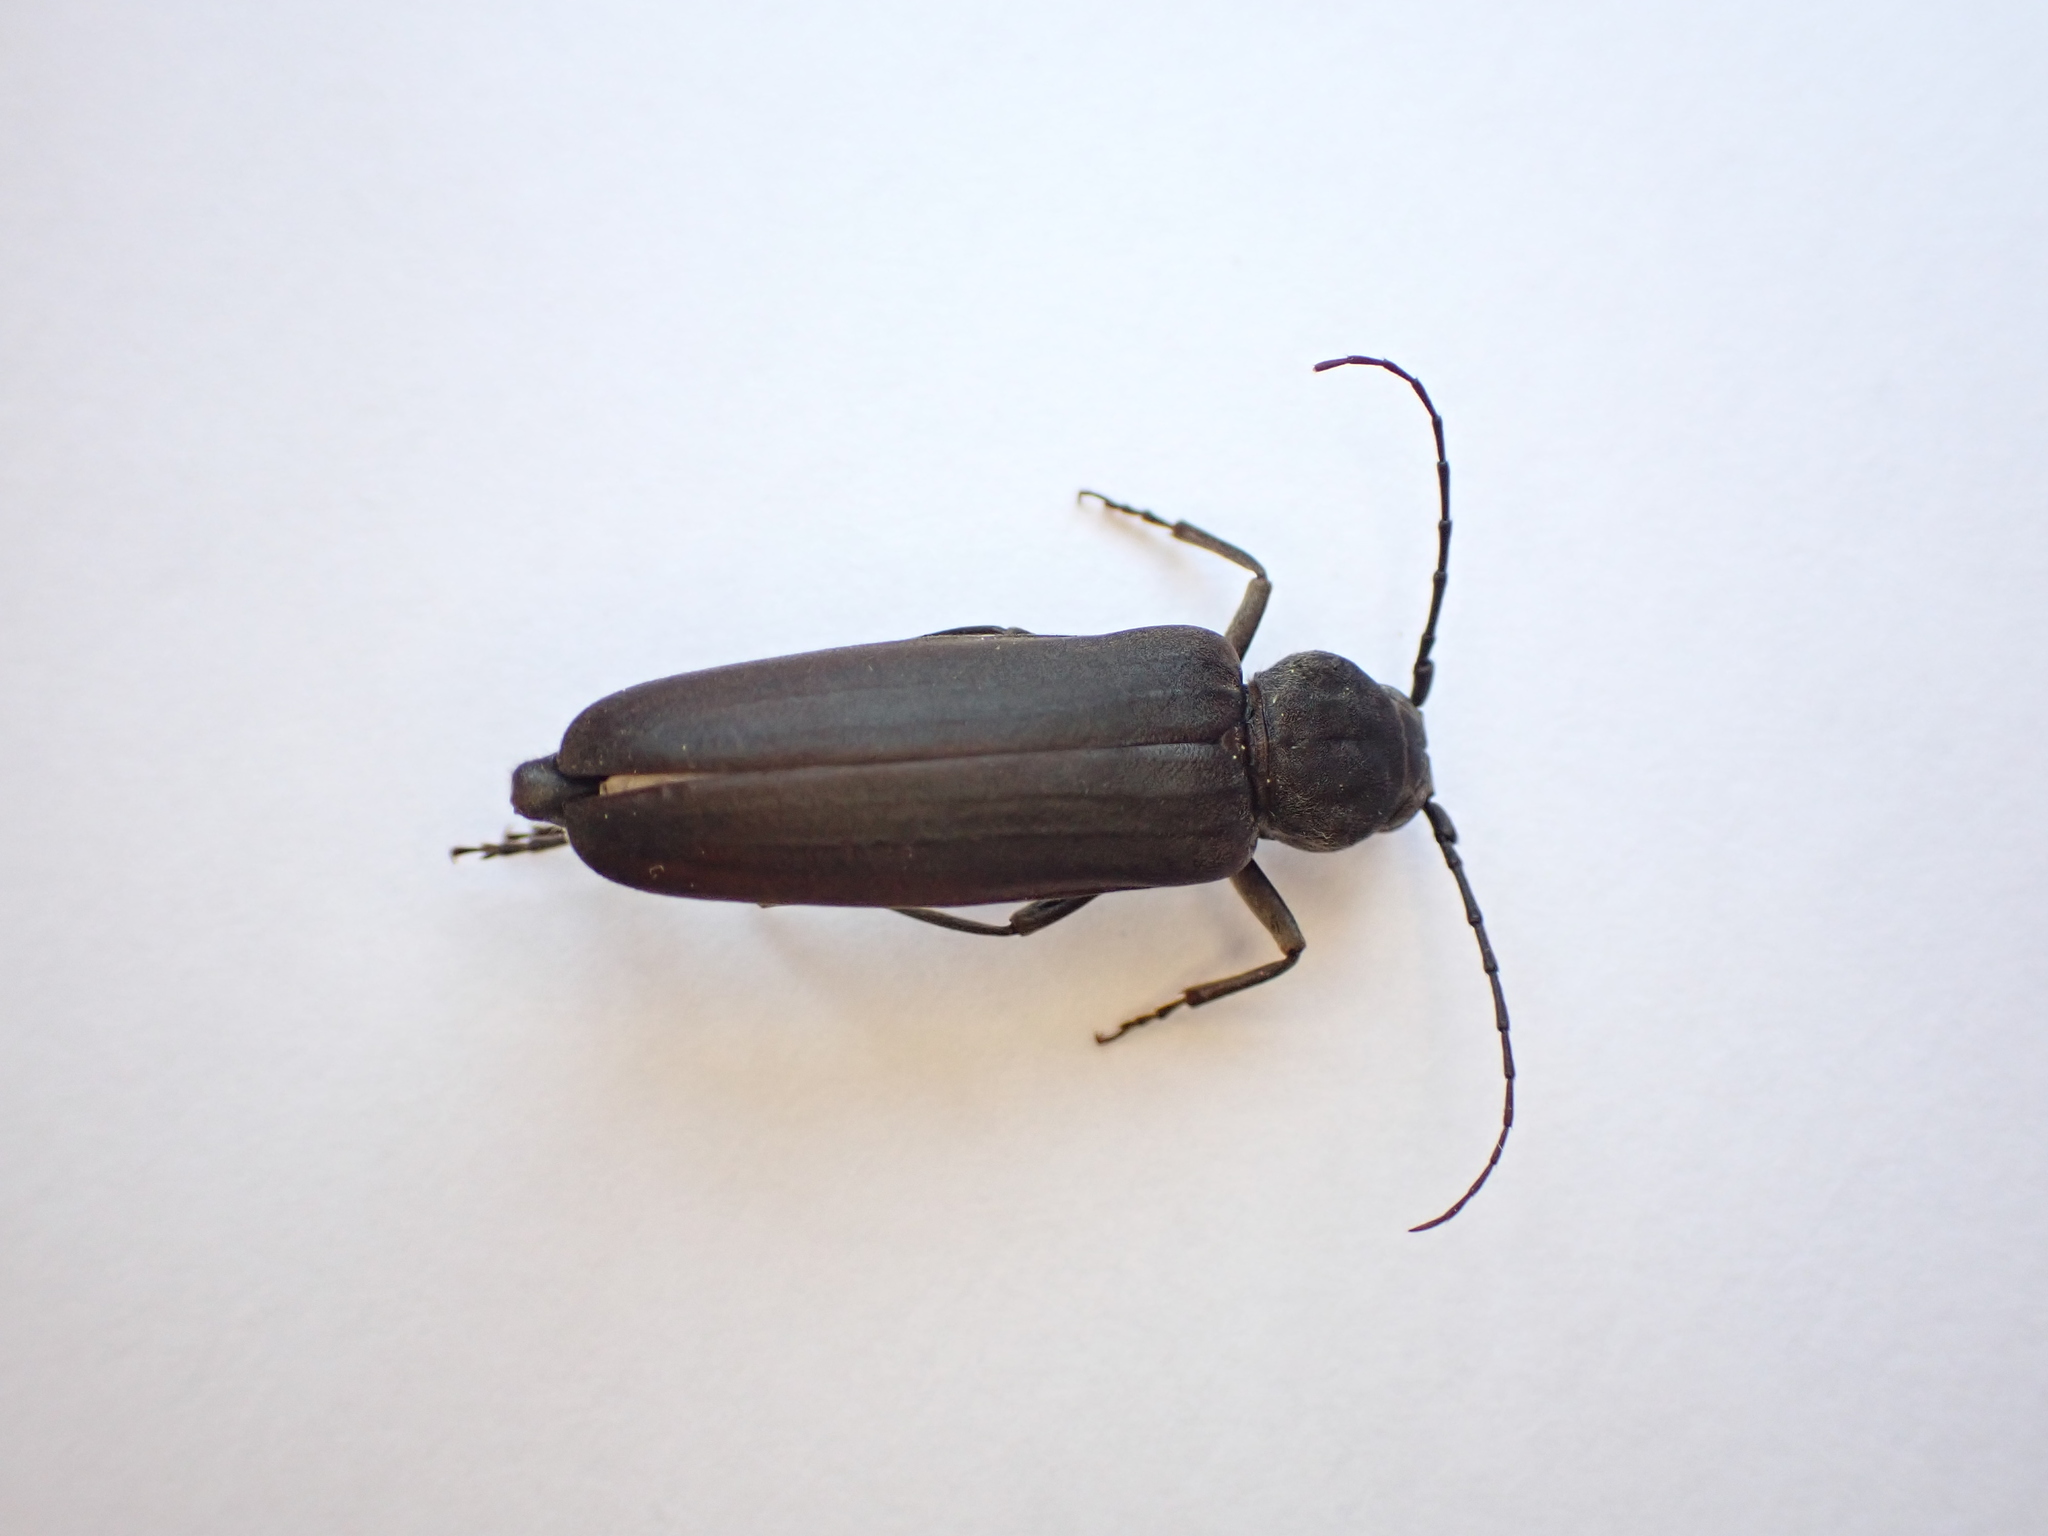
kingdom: Animalia
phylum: Arthropoda
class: Insecta
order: Coleoptera
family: Cerambycidae
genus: Arhopalus
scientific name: Arhopalus ferus
